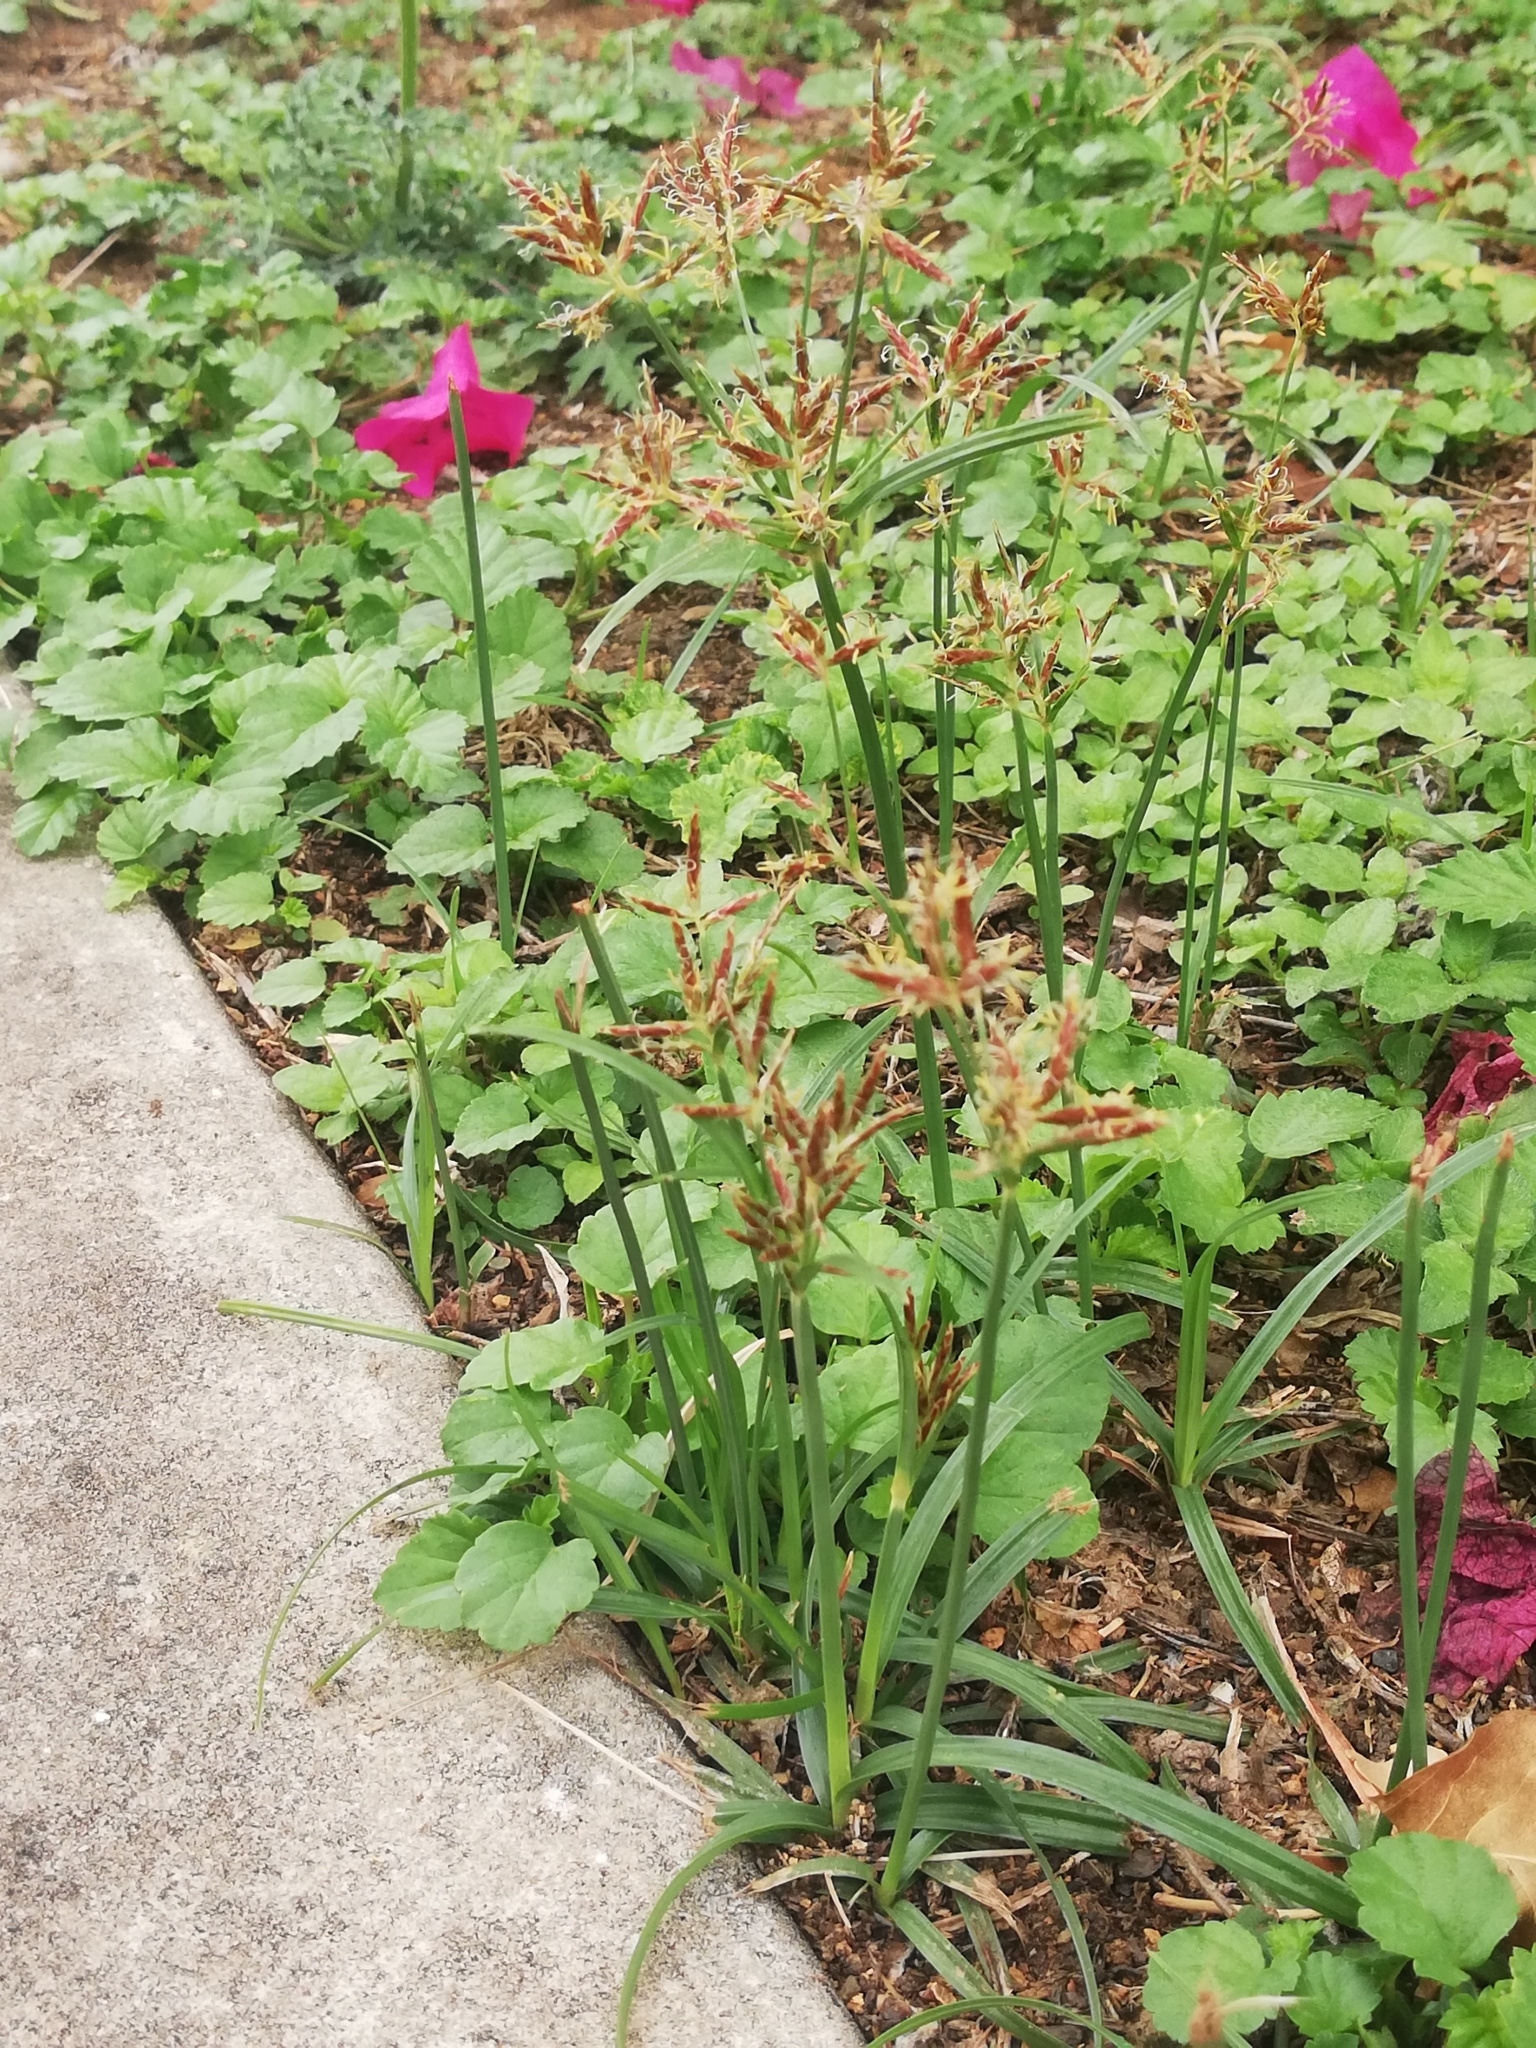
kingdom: Plantae
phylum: Tracheophyta
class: Liliopsida
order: Poales
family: Cyperaceae
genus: Cyperus
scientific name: Cyperus rotundus
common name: Nutgrass
